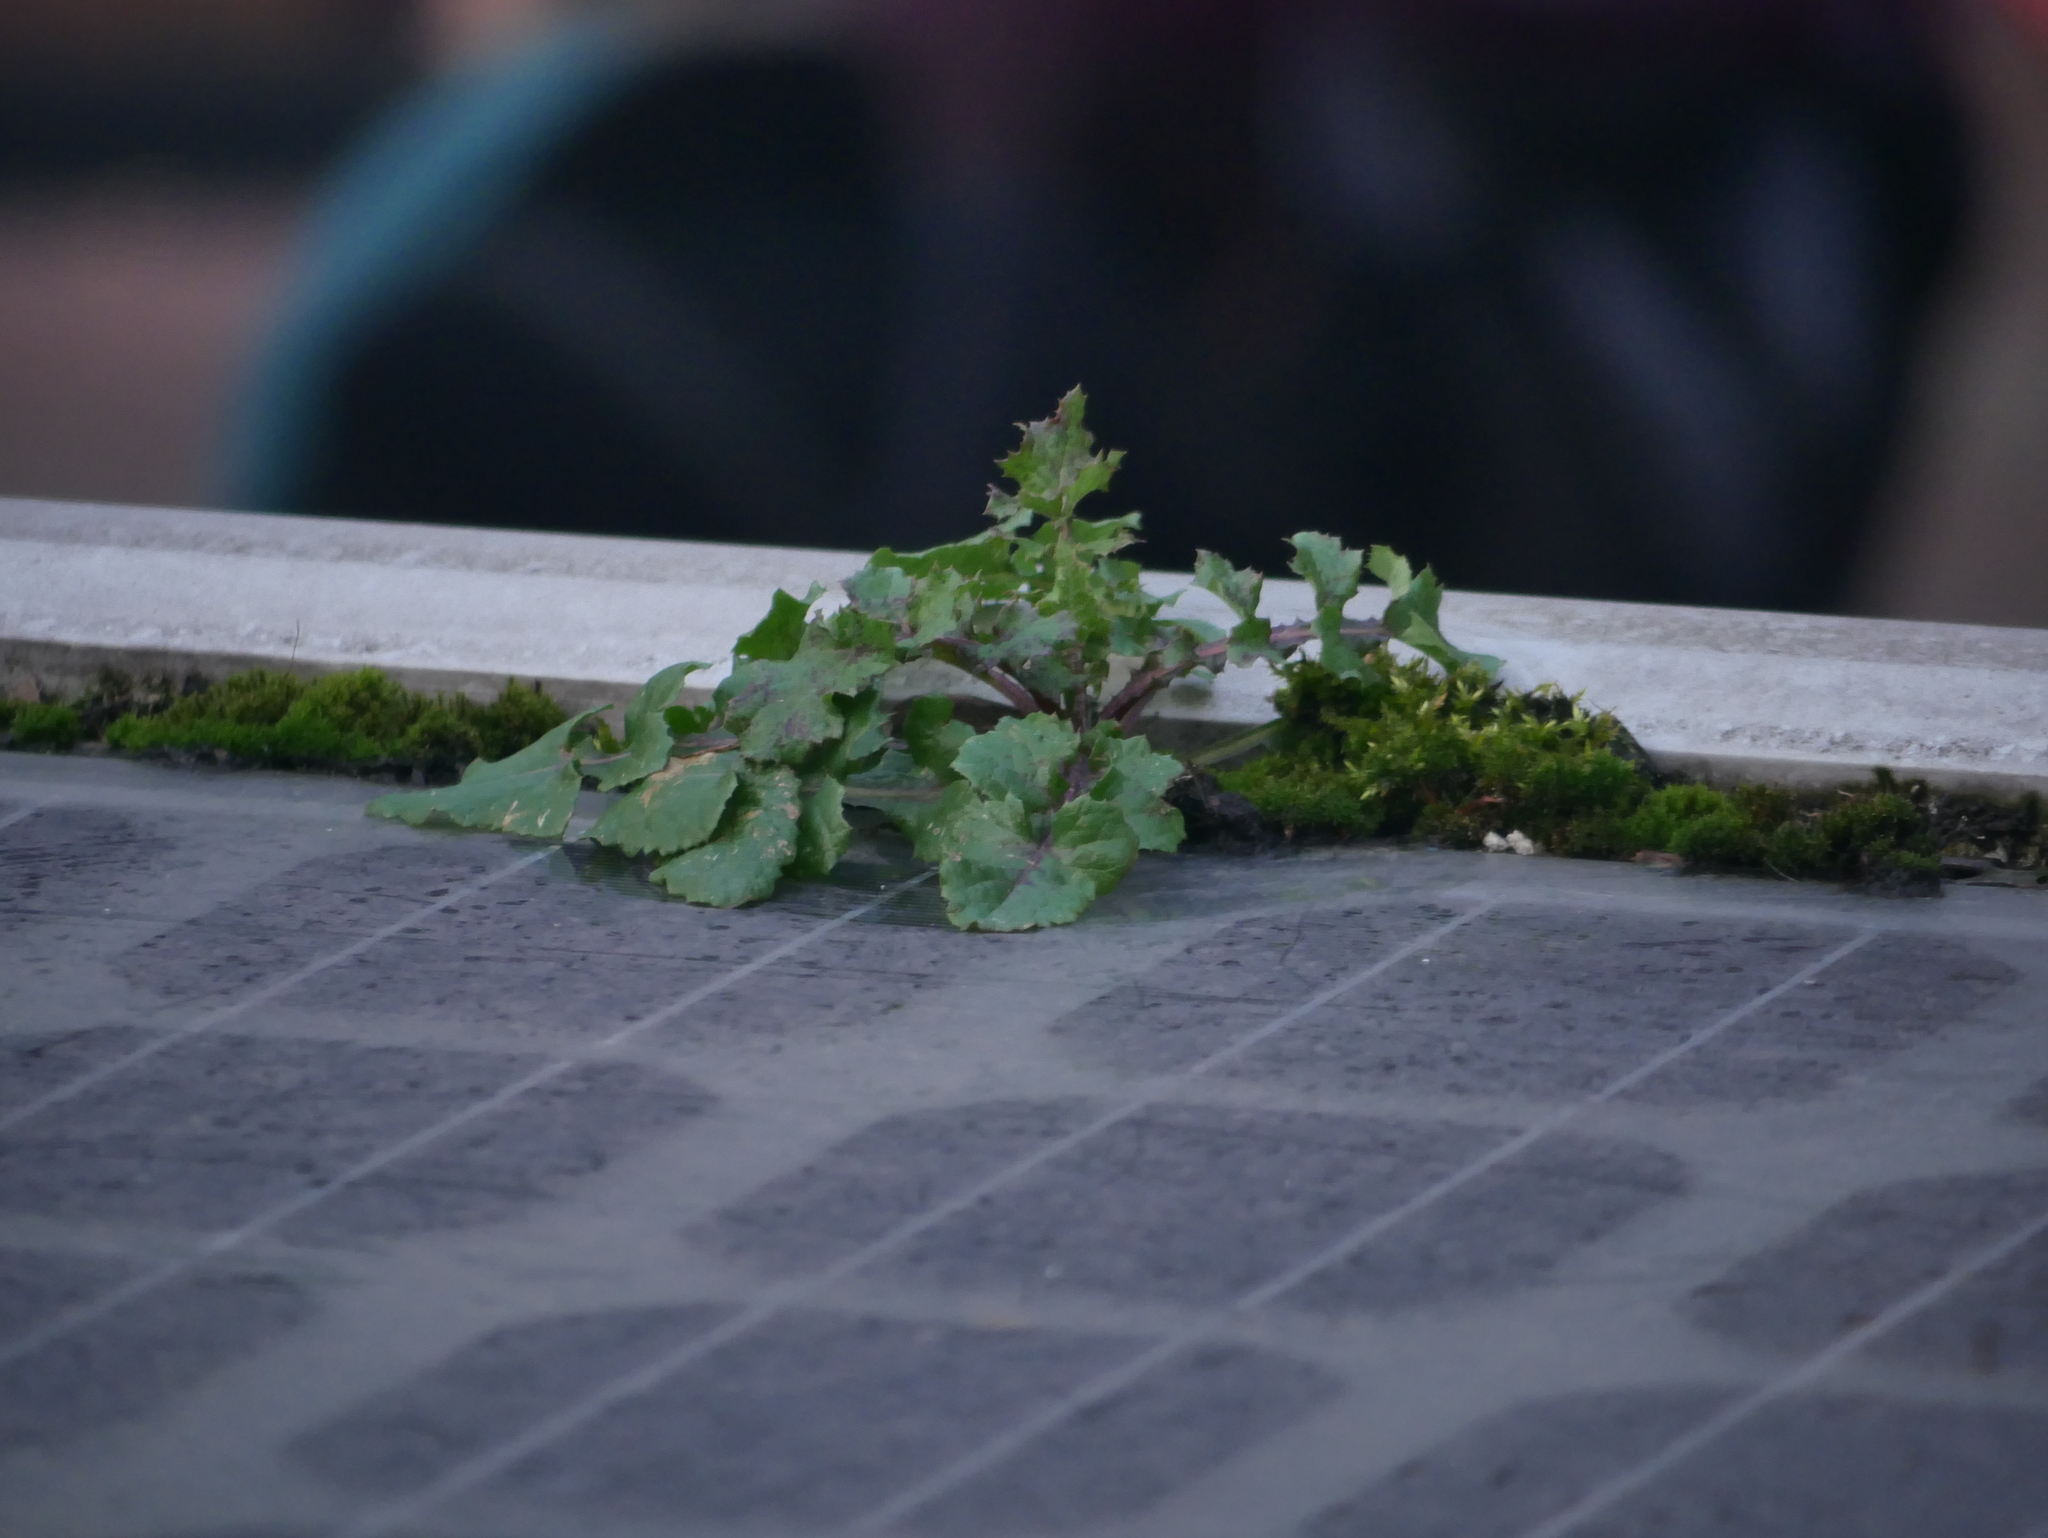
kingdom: Plantae
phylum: Tracheophyta
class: Magnoliopsida
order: Asterales
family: Asteraceae
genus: Sonchus
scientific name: Sonchus oleraceus
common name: Common sowthistle
